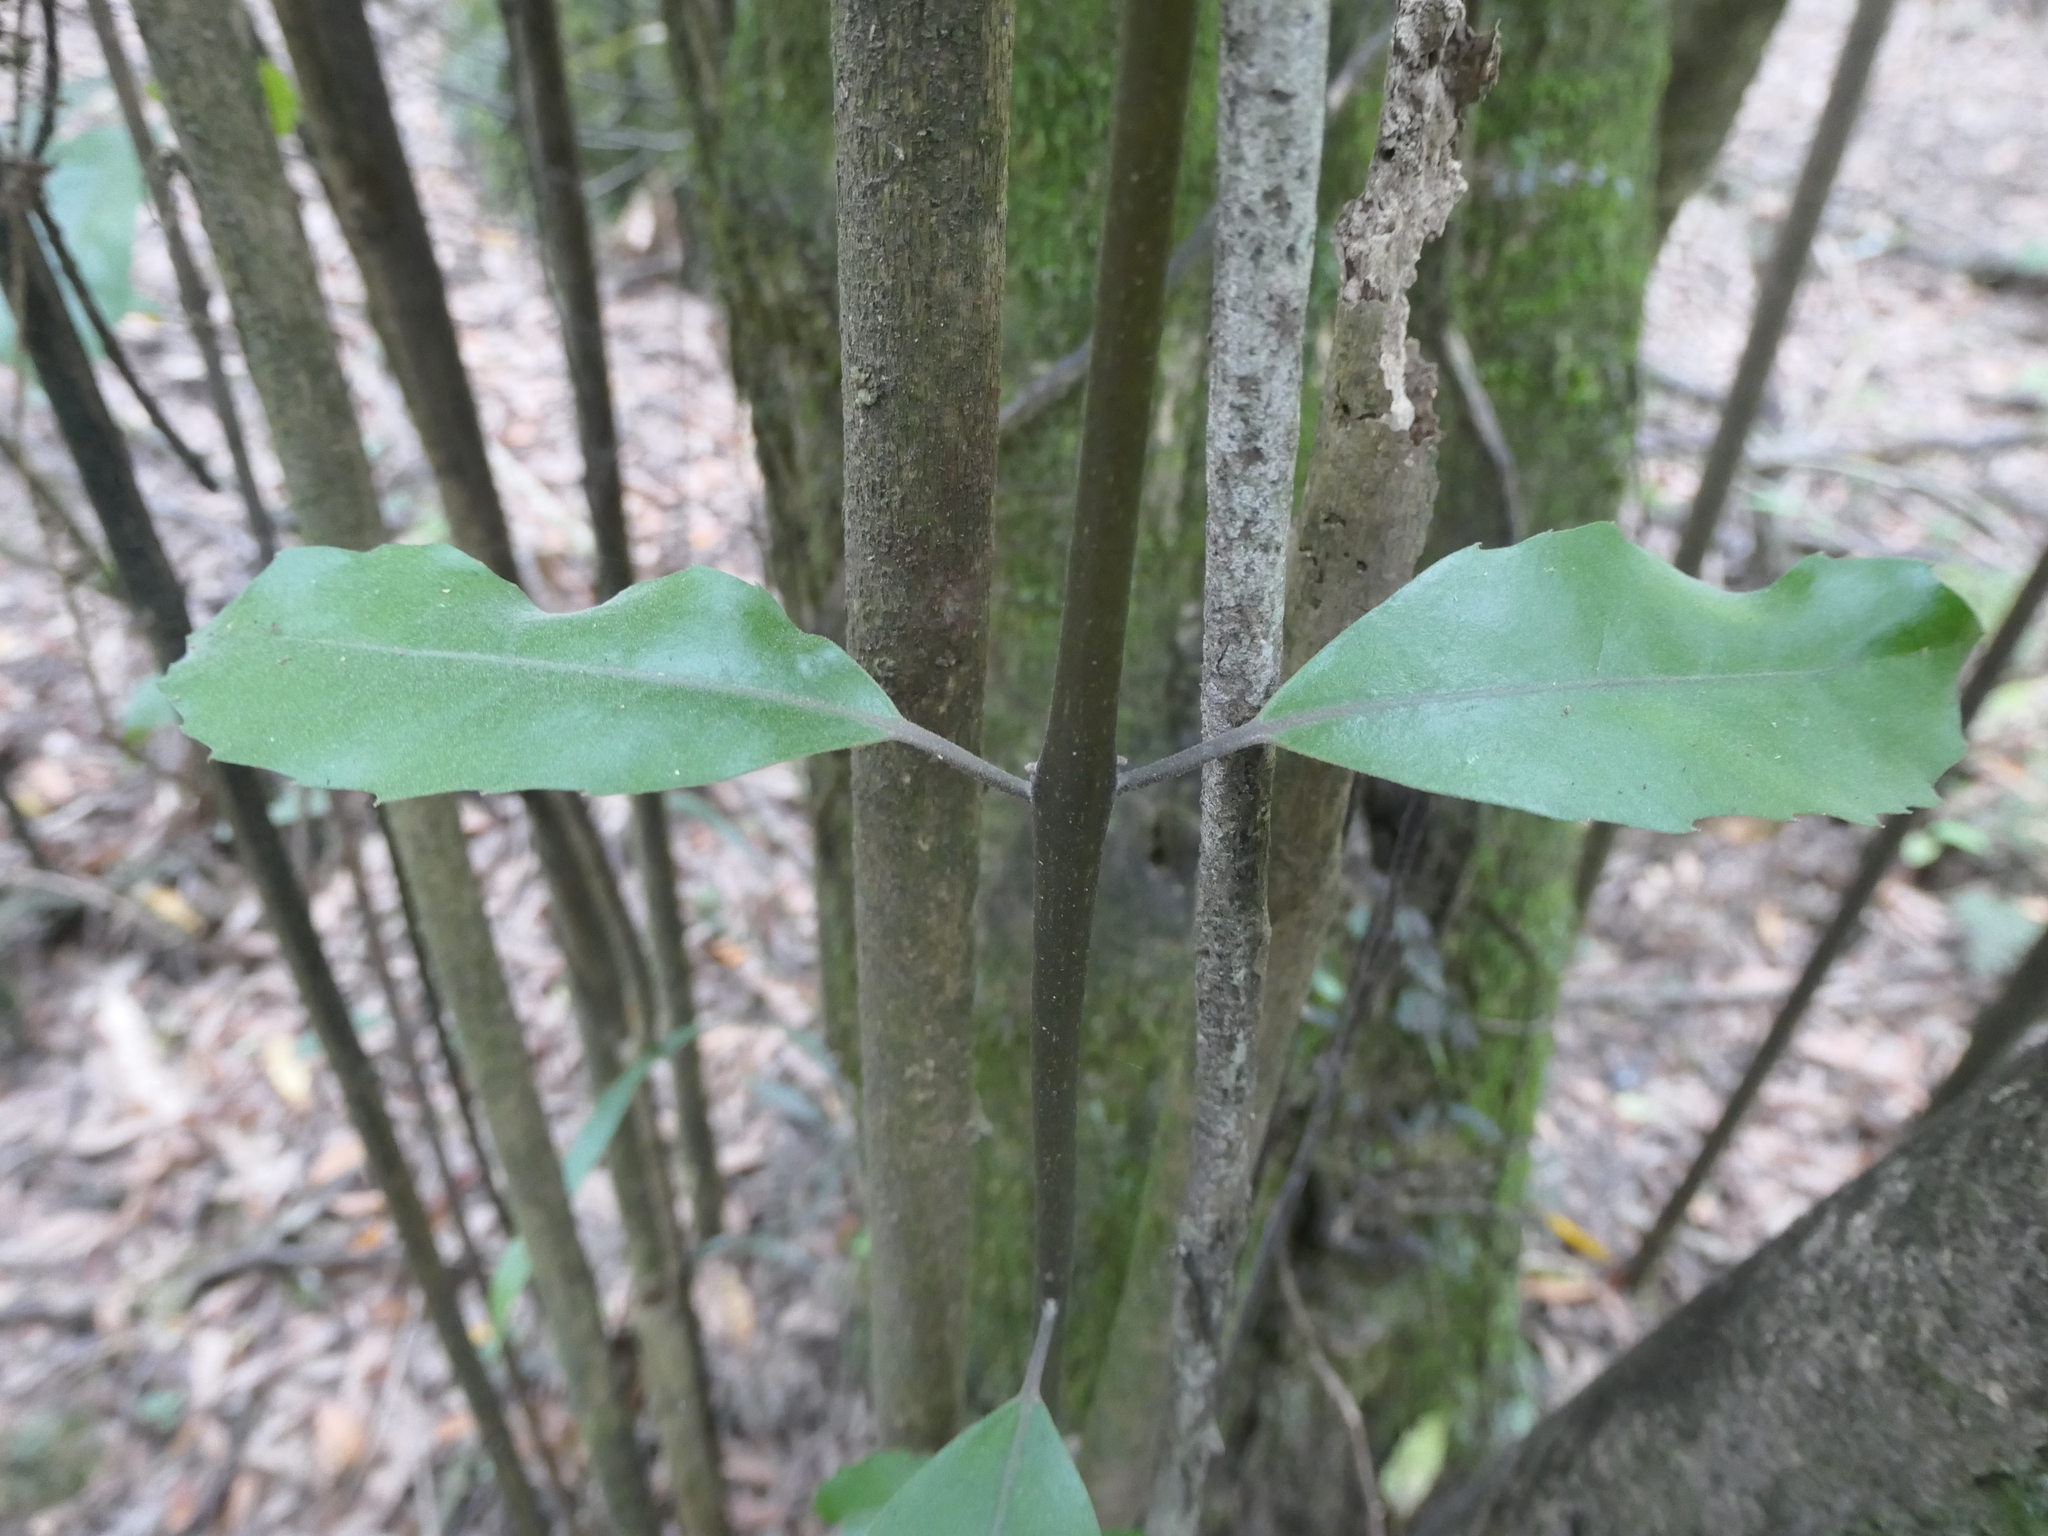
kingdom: Plantae
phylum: Tracheophyta
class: Magnoliopsida
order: Laurales
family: Monimiaceae
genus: Hedycarya
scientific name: Hedycarya arborea
